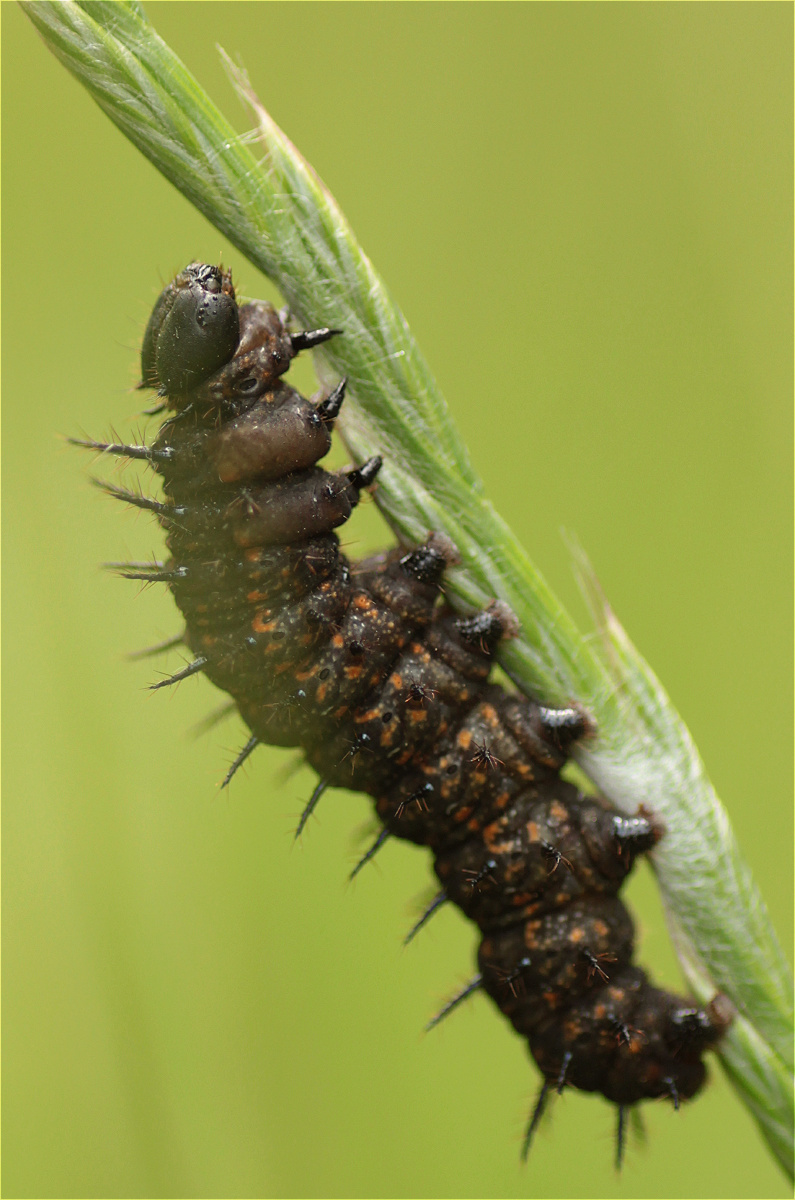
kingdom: Animalia
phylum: Arthropoda
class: Insecta
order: Lepidoptera
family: Nymphalidae
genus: Dione
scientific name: Dione juno
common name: Juno silverspot
